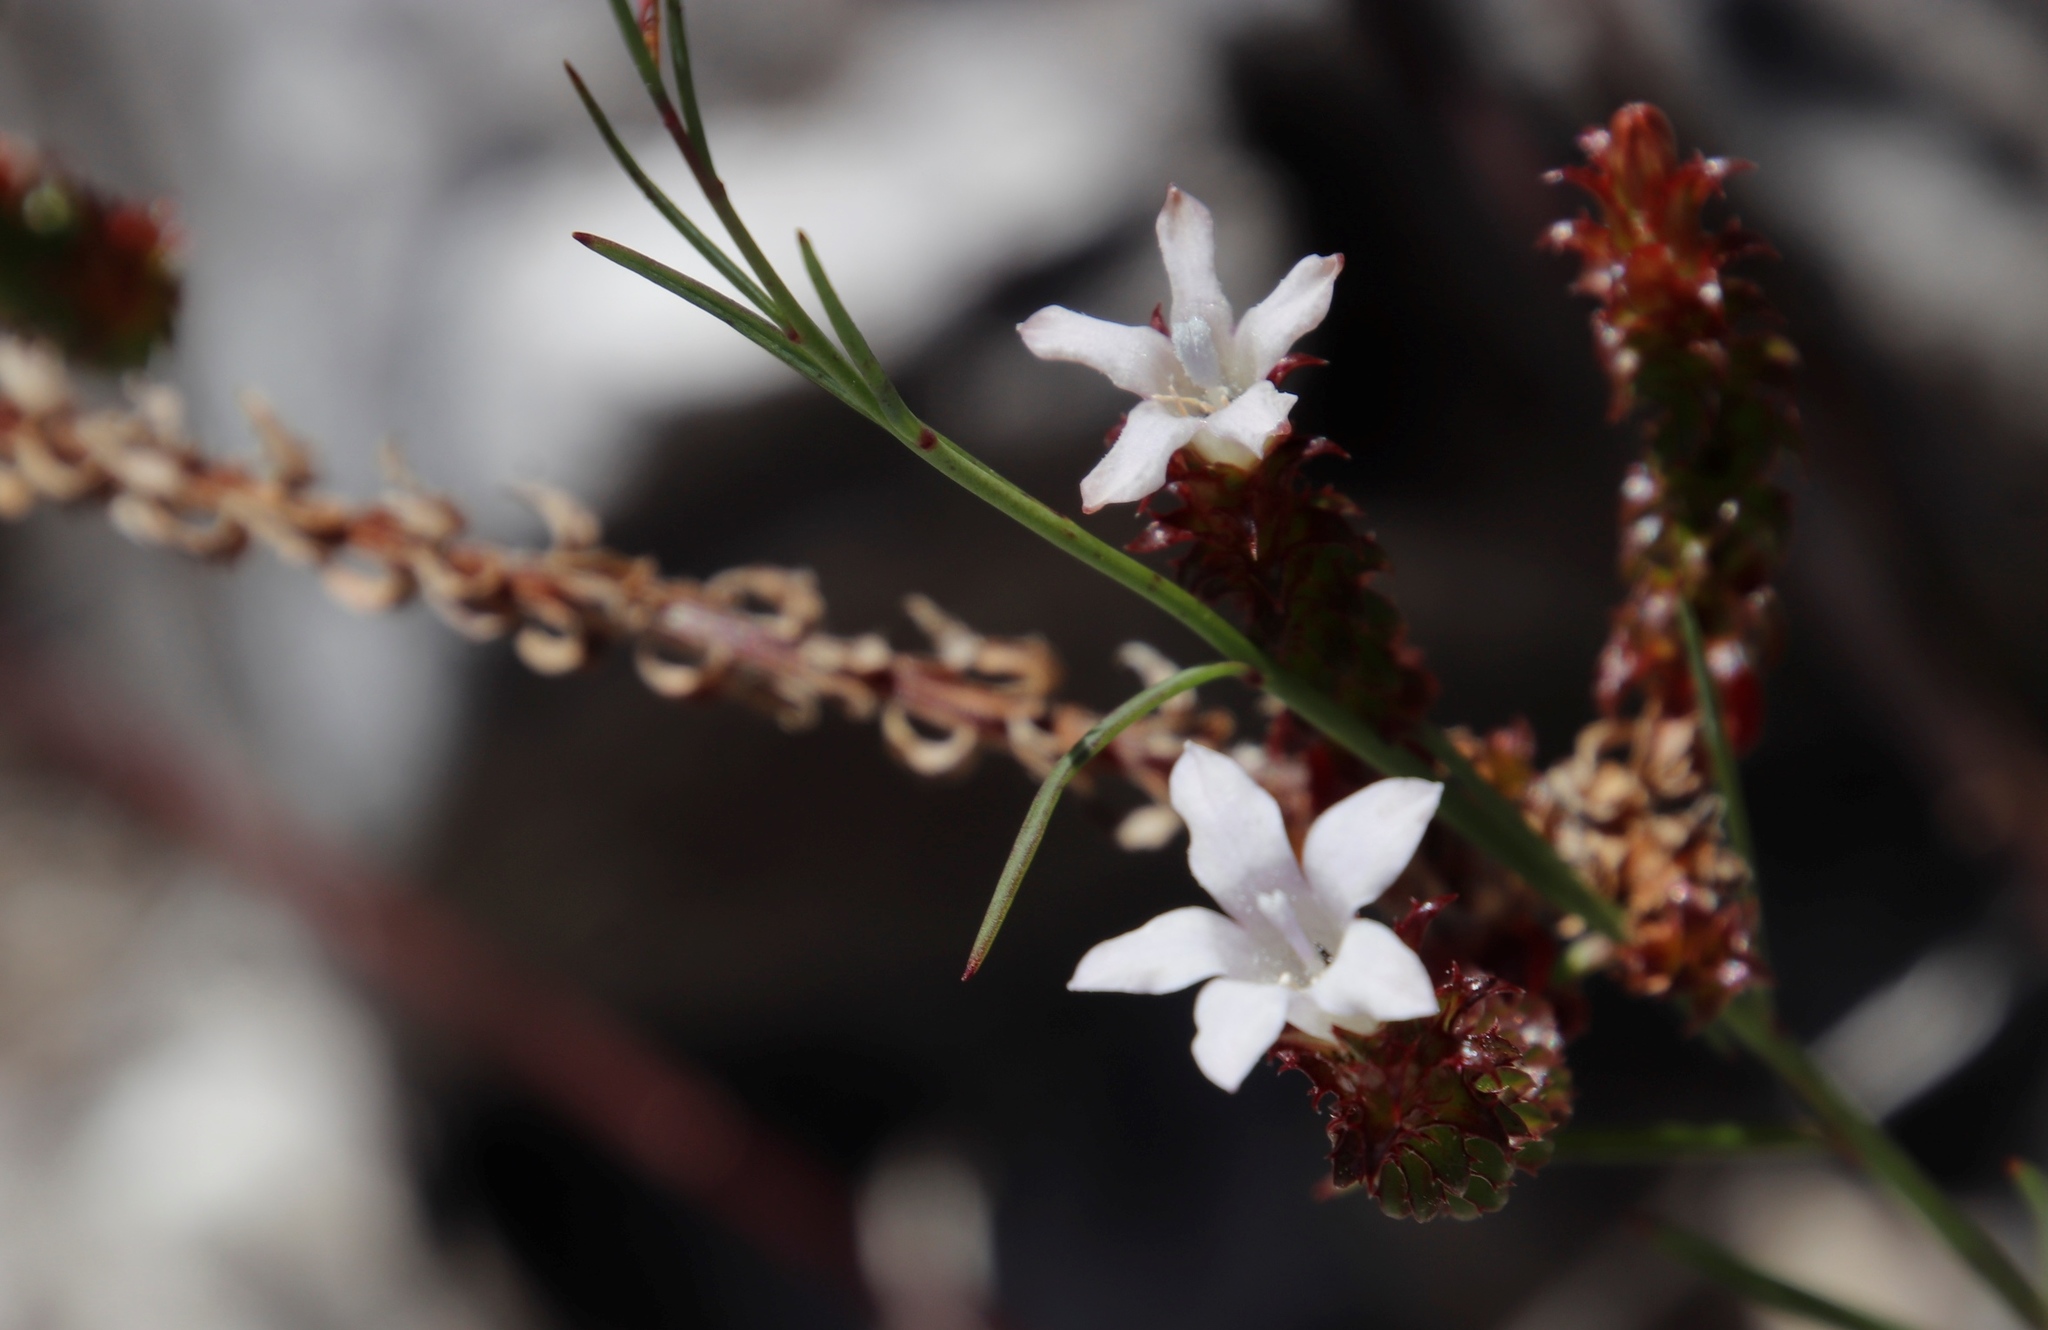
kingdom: Plantae
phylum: Tracheophyta
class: Magnoliopsida
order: Asterales
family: Campanulaceae
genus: Roella
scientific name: Roella amplexicaulis
